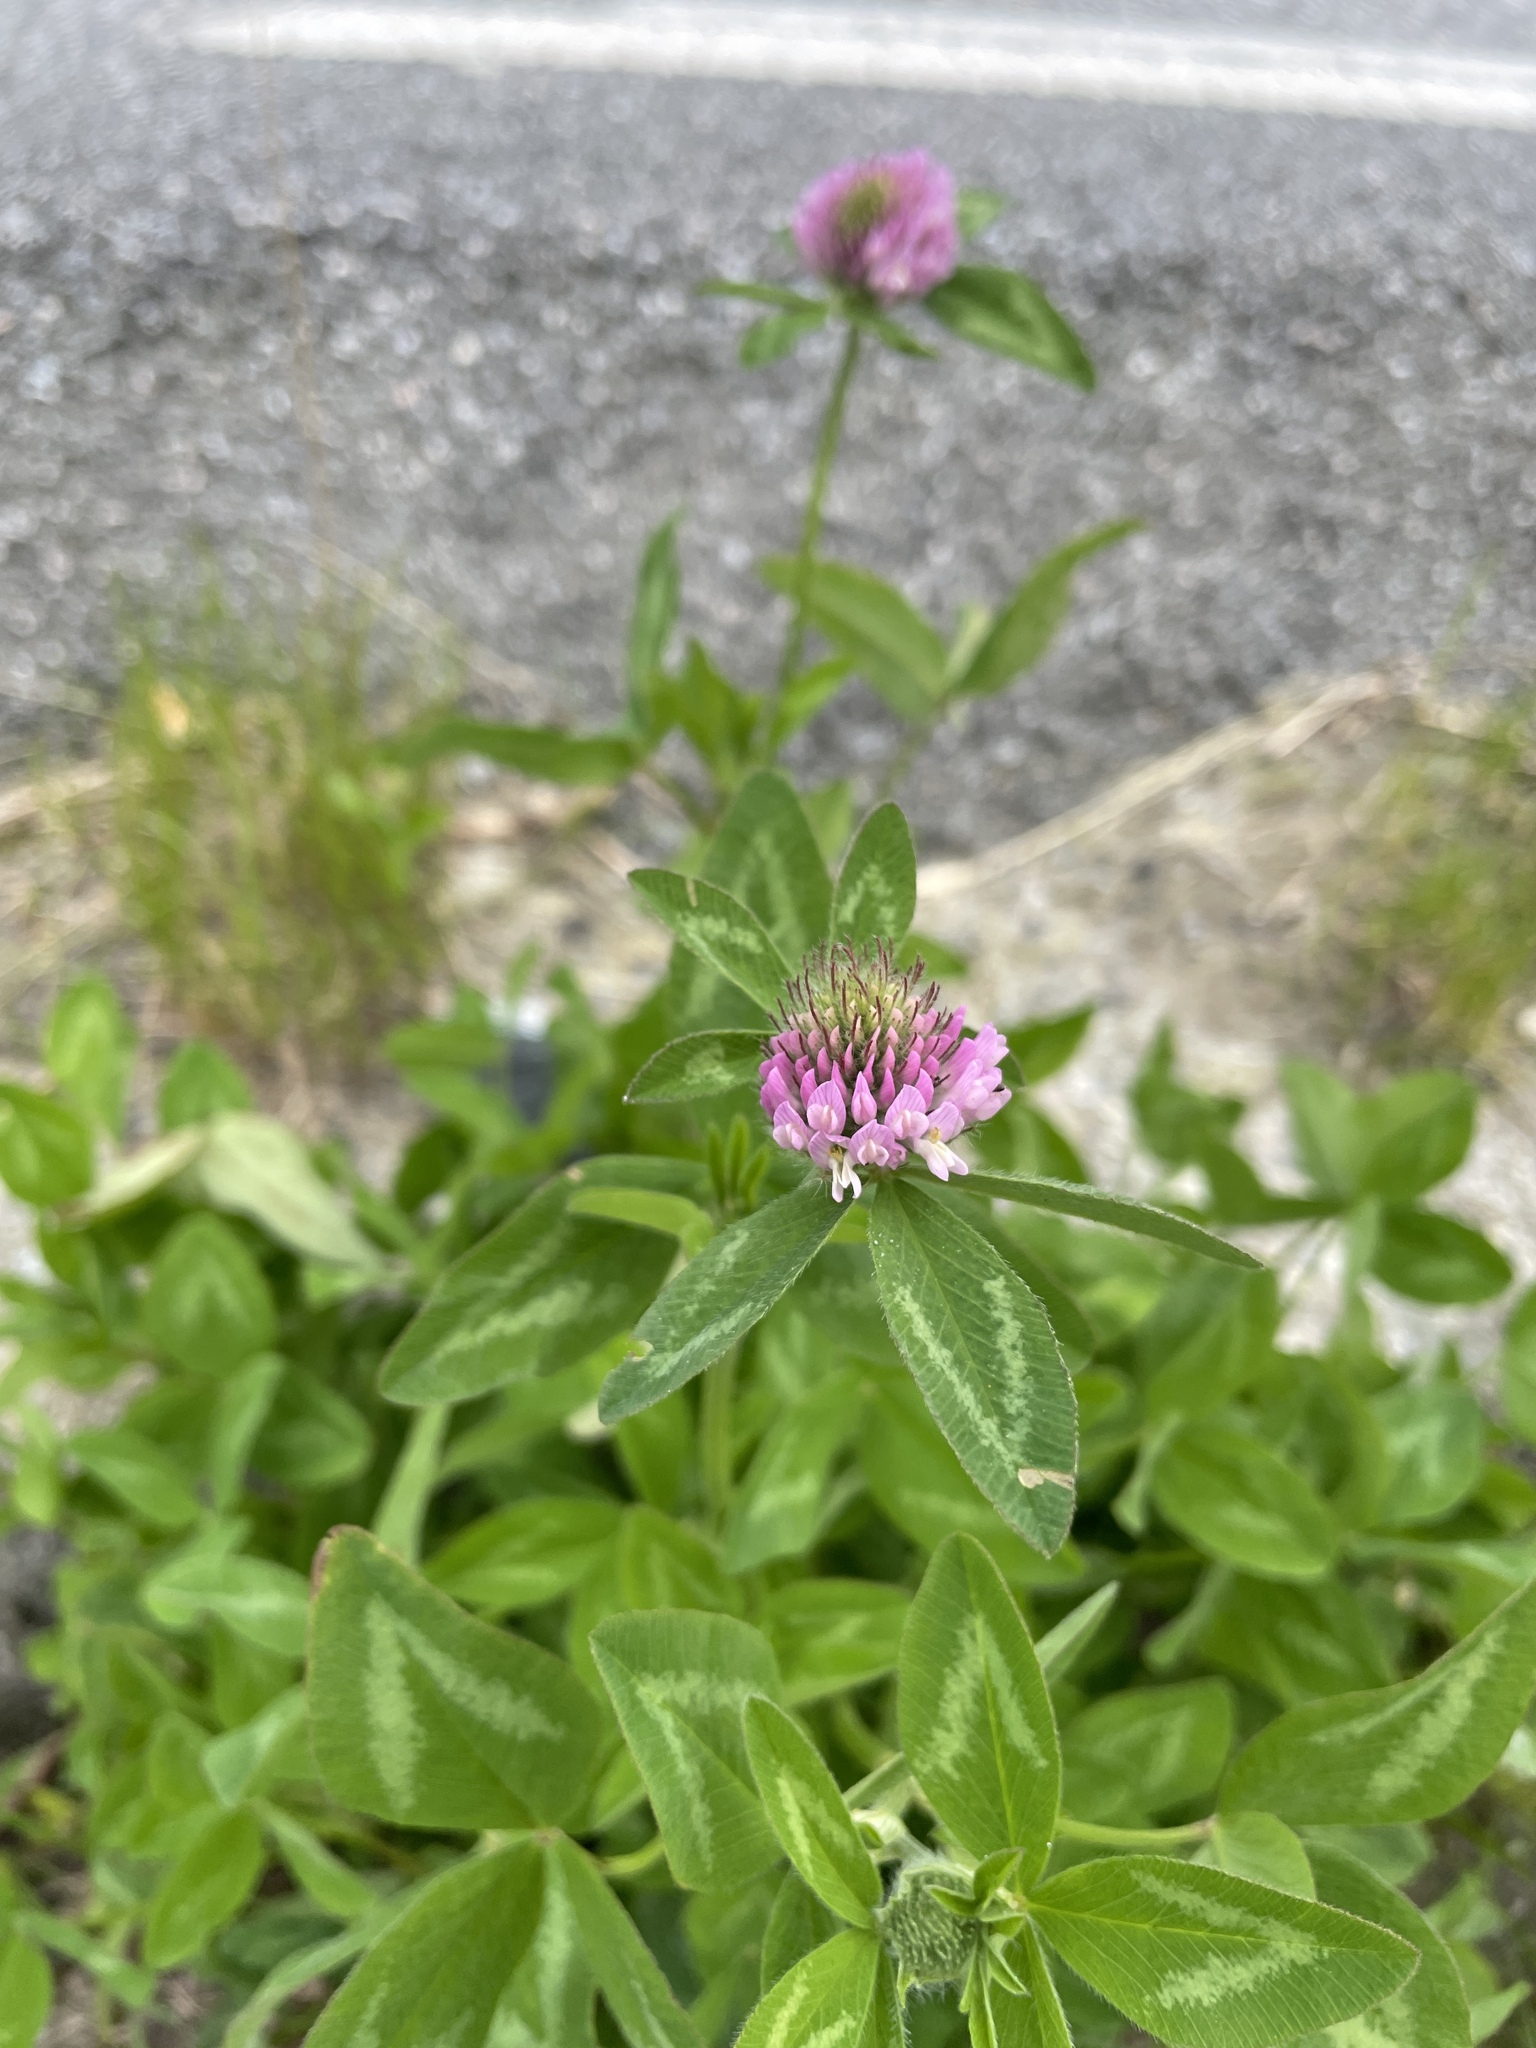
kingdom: Plantae
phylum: Tracheophyta
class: Magnoliopsida
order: Fabales
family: Fabaceae
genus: Trifolium
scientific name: Trifolium pratense
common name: Red clover
